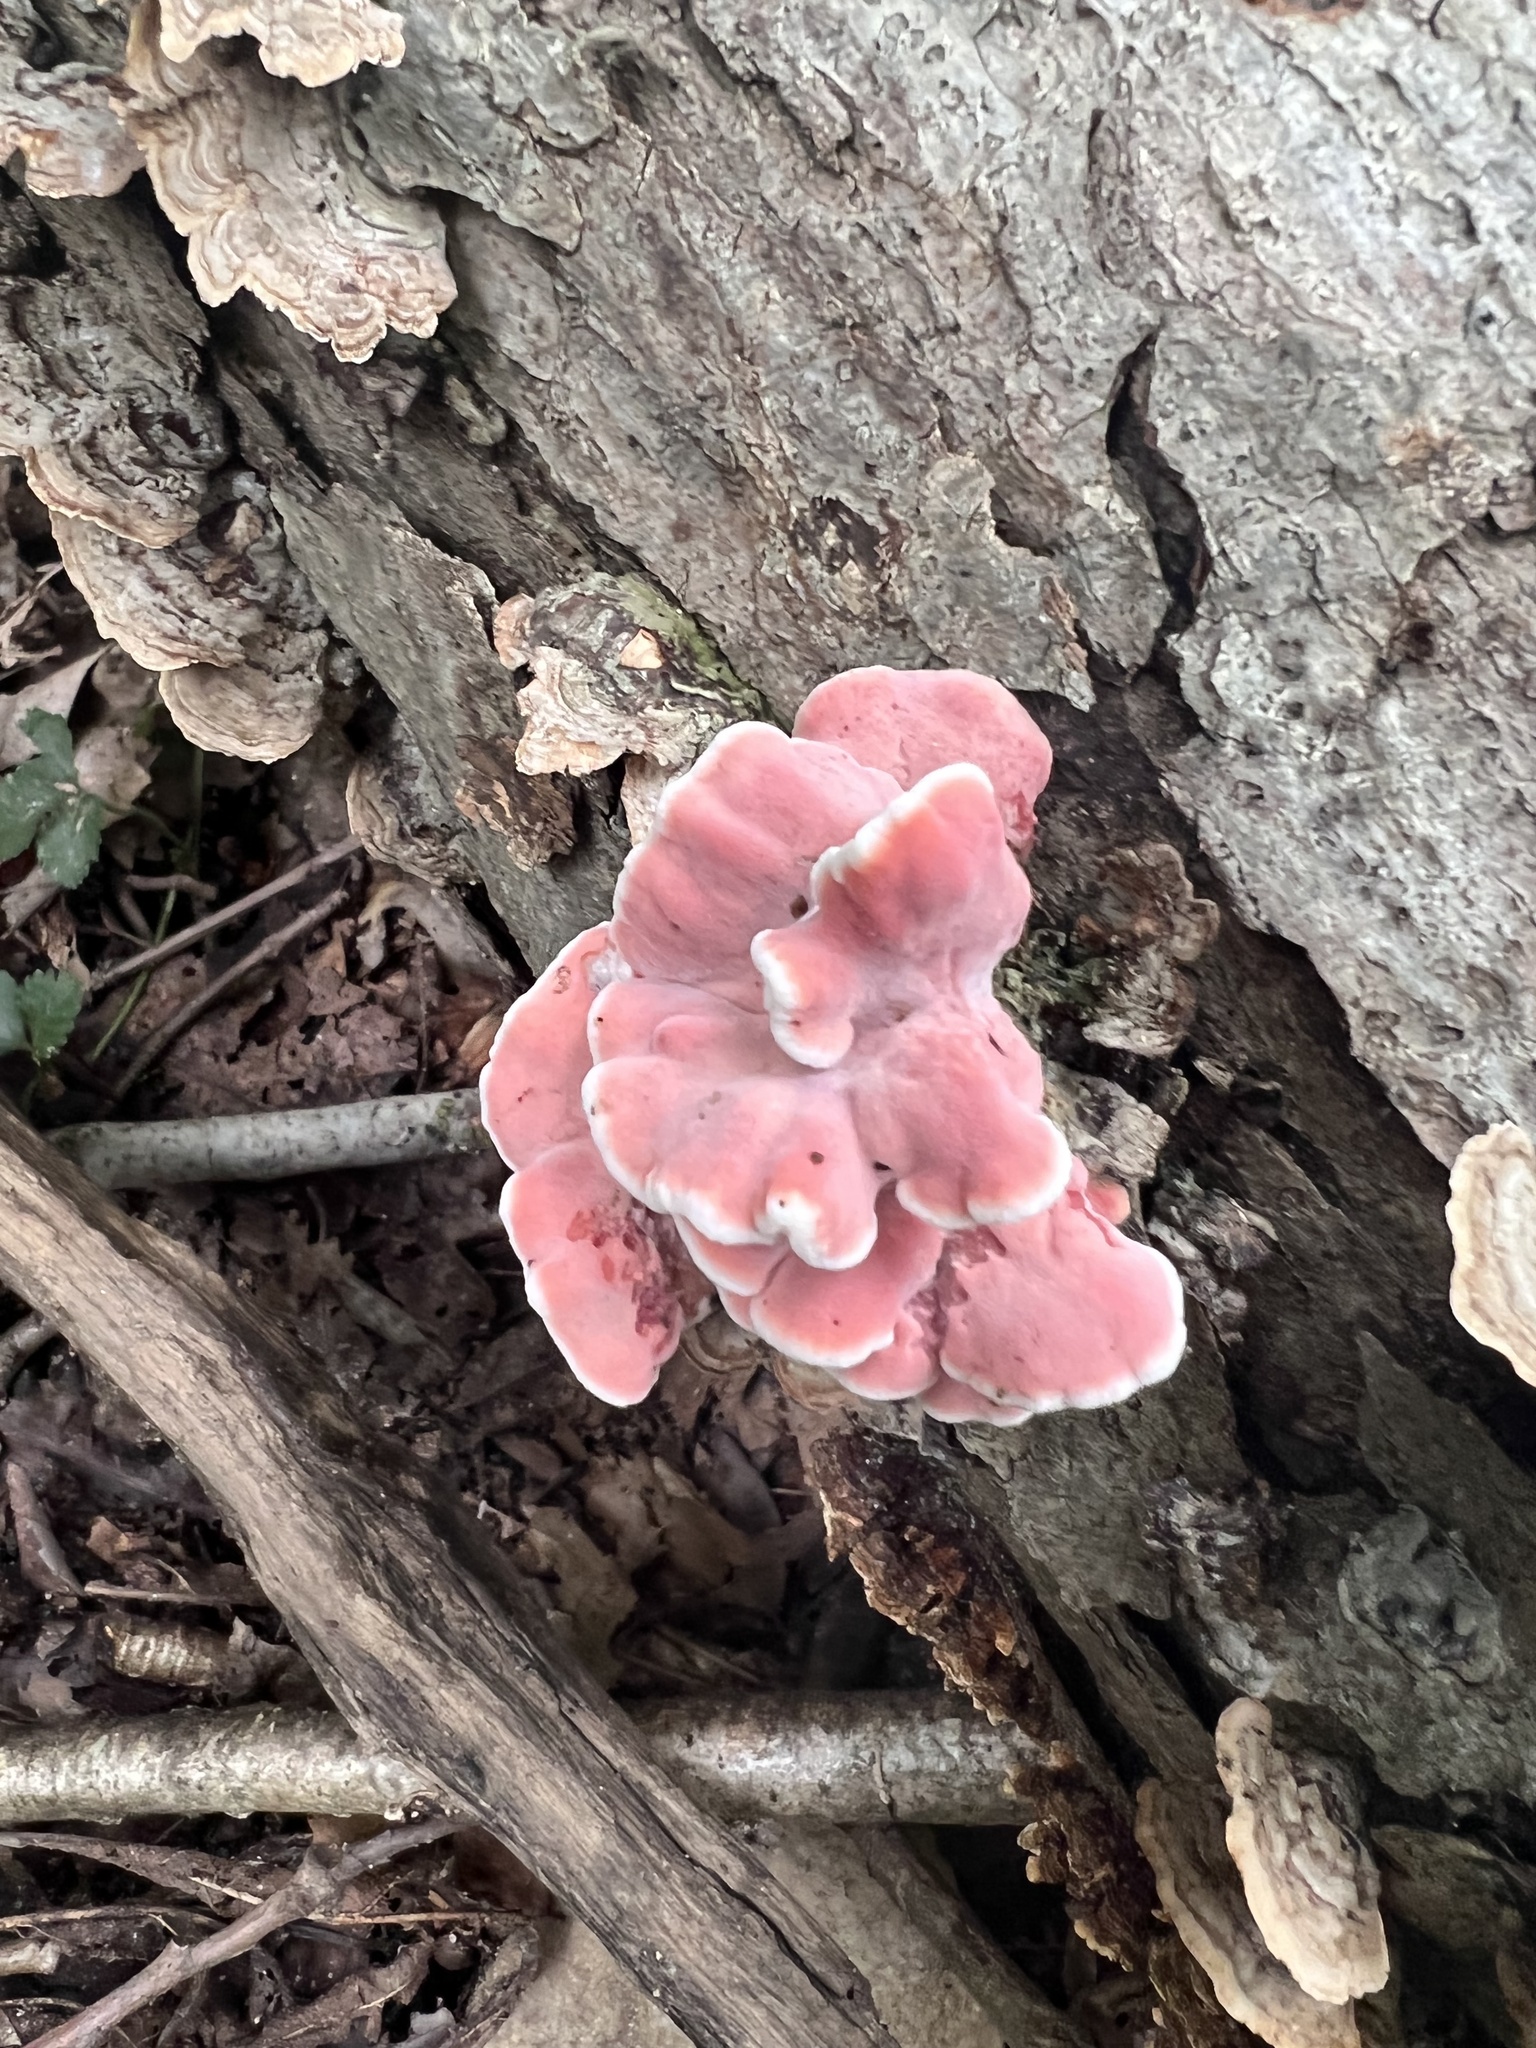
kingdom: Fungi
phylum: Basidiomycota
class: Agaricomycetes
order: Polyporales
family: Irpicaceae
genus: Byssomerulius
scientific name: Byssomerulius incarnatus
